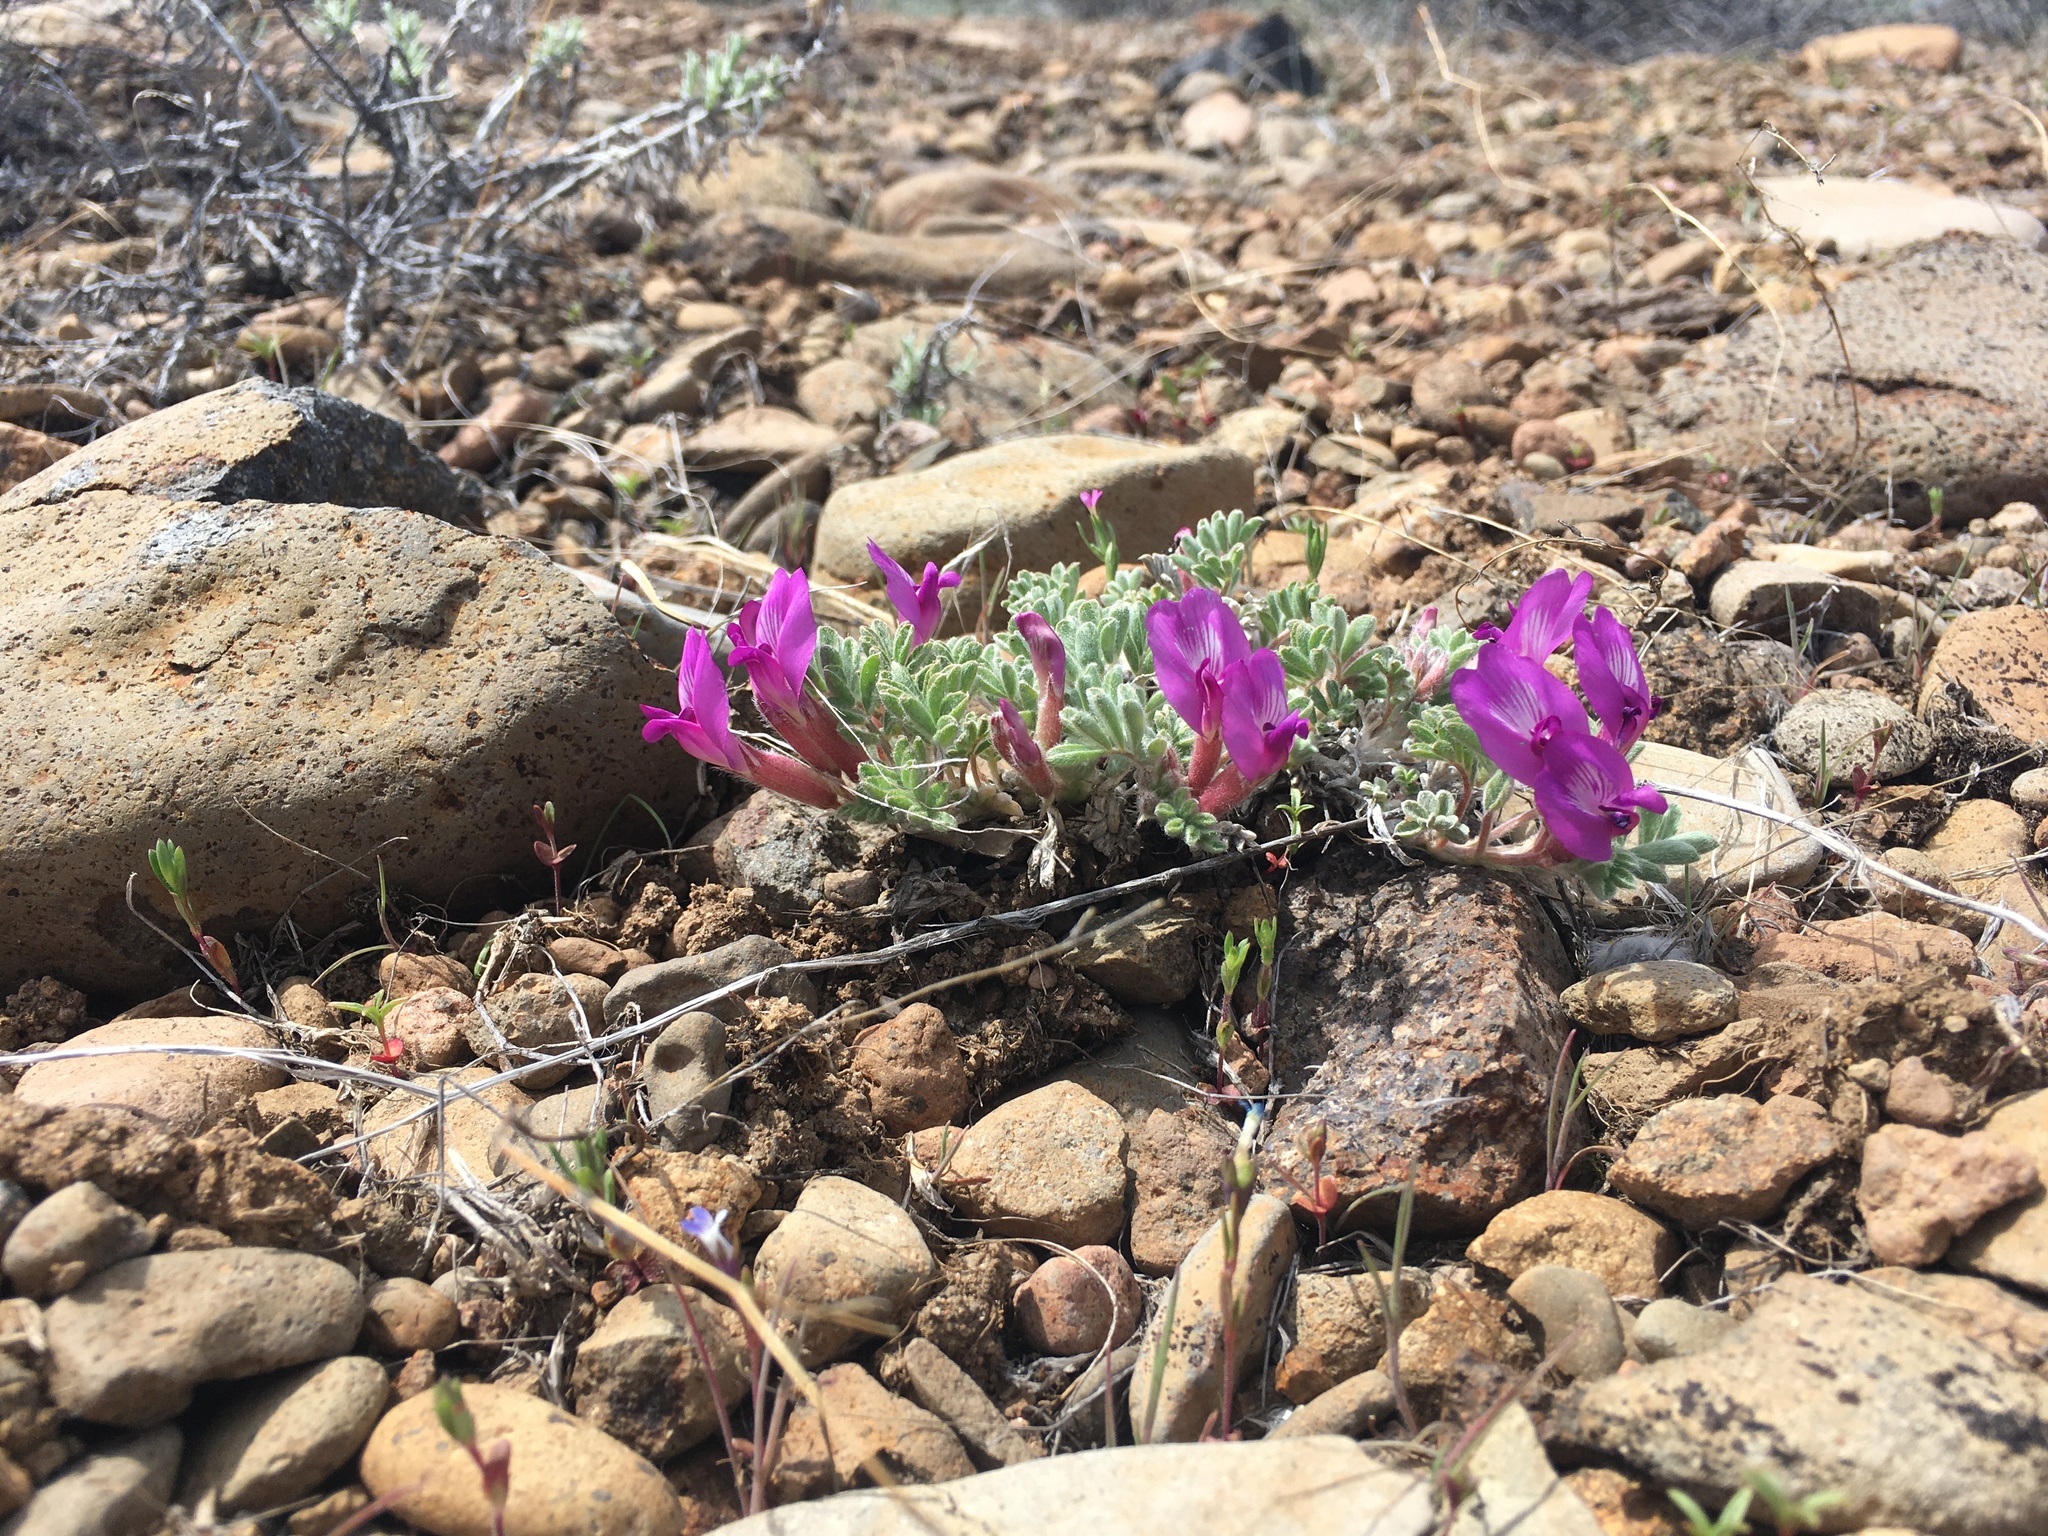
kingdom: Plantae
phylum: Tracheophyta
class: Magnoliopsida
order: Fabales
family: Fabaceae
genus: Astragalus
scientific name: Astragalus purshii
